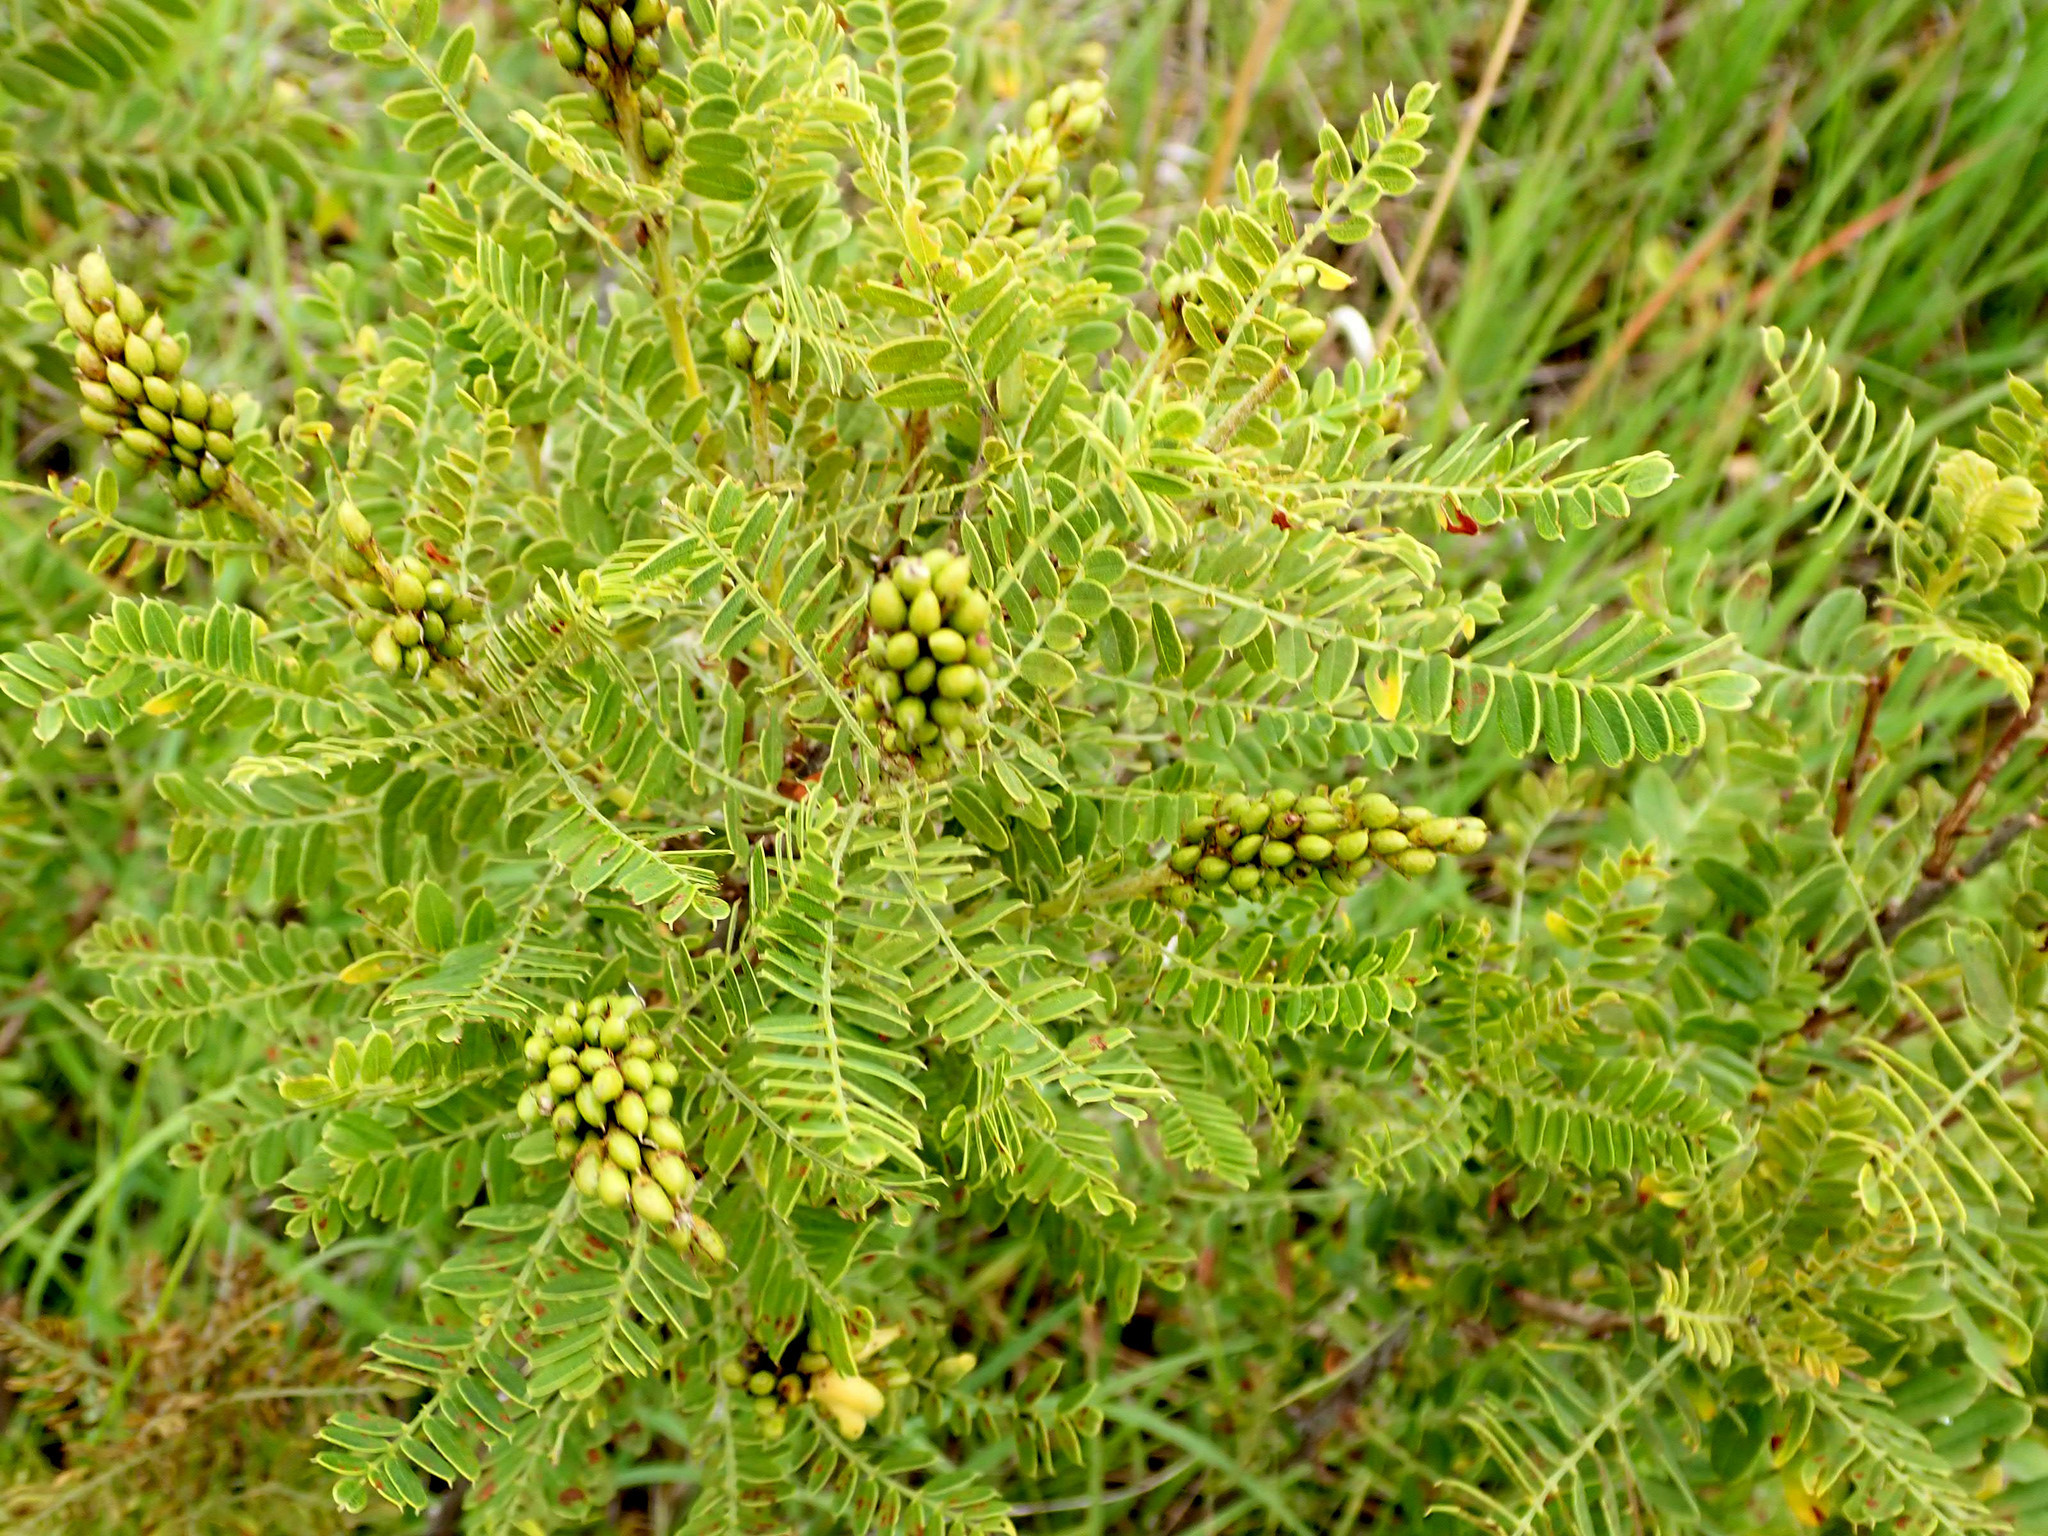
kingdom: Plantae
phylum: Tracheophyta
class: Magnoliopsida
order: Fabales
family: Fabaceae
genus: Amorpha
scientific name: Amorpha nana
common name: Fragrant false indigo
